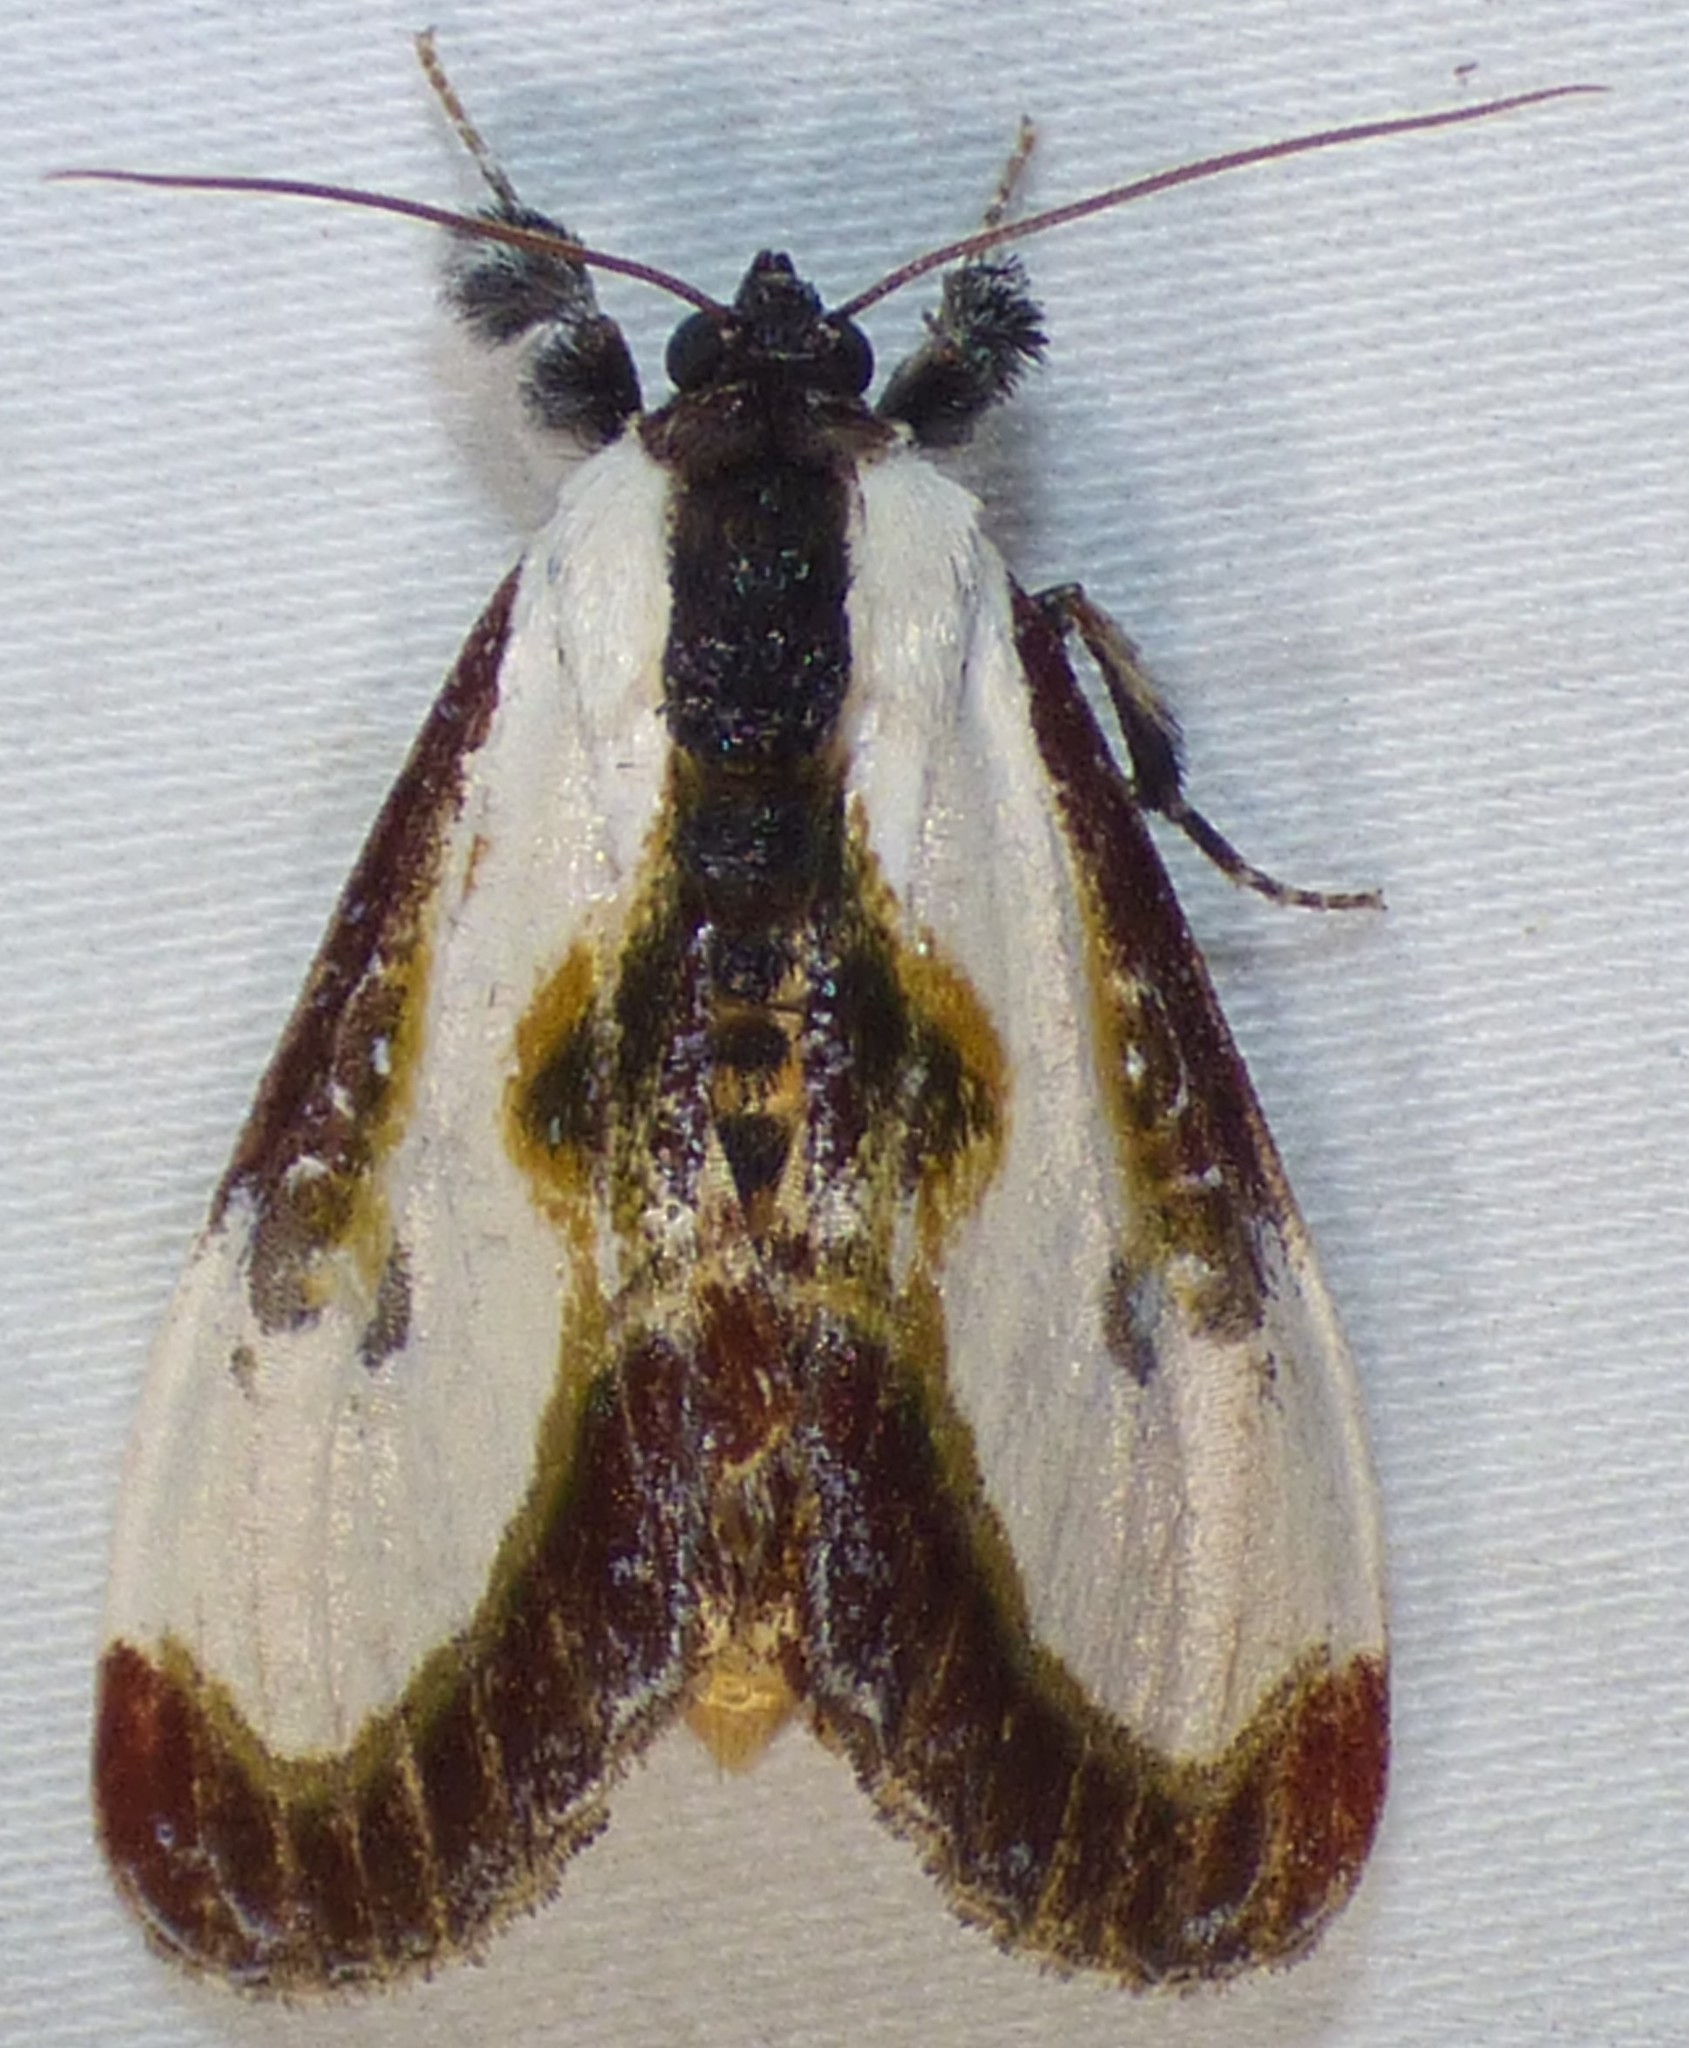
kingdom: Animalia
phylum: Arthropoda
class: Insecta
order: Lepidoptera
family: Noctuidae
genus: Eudryas
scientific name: Eudryas grata
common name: Beautiful wood-nymph
